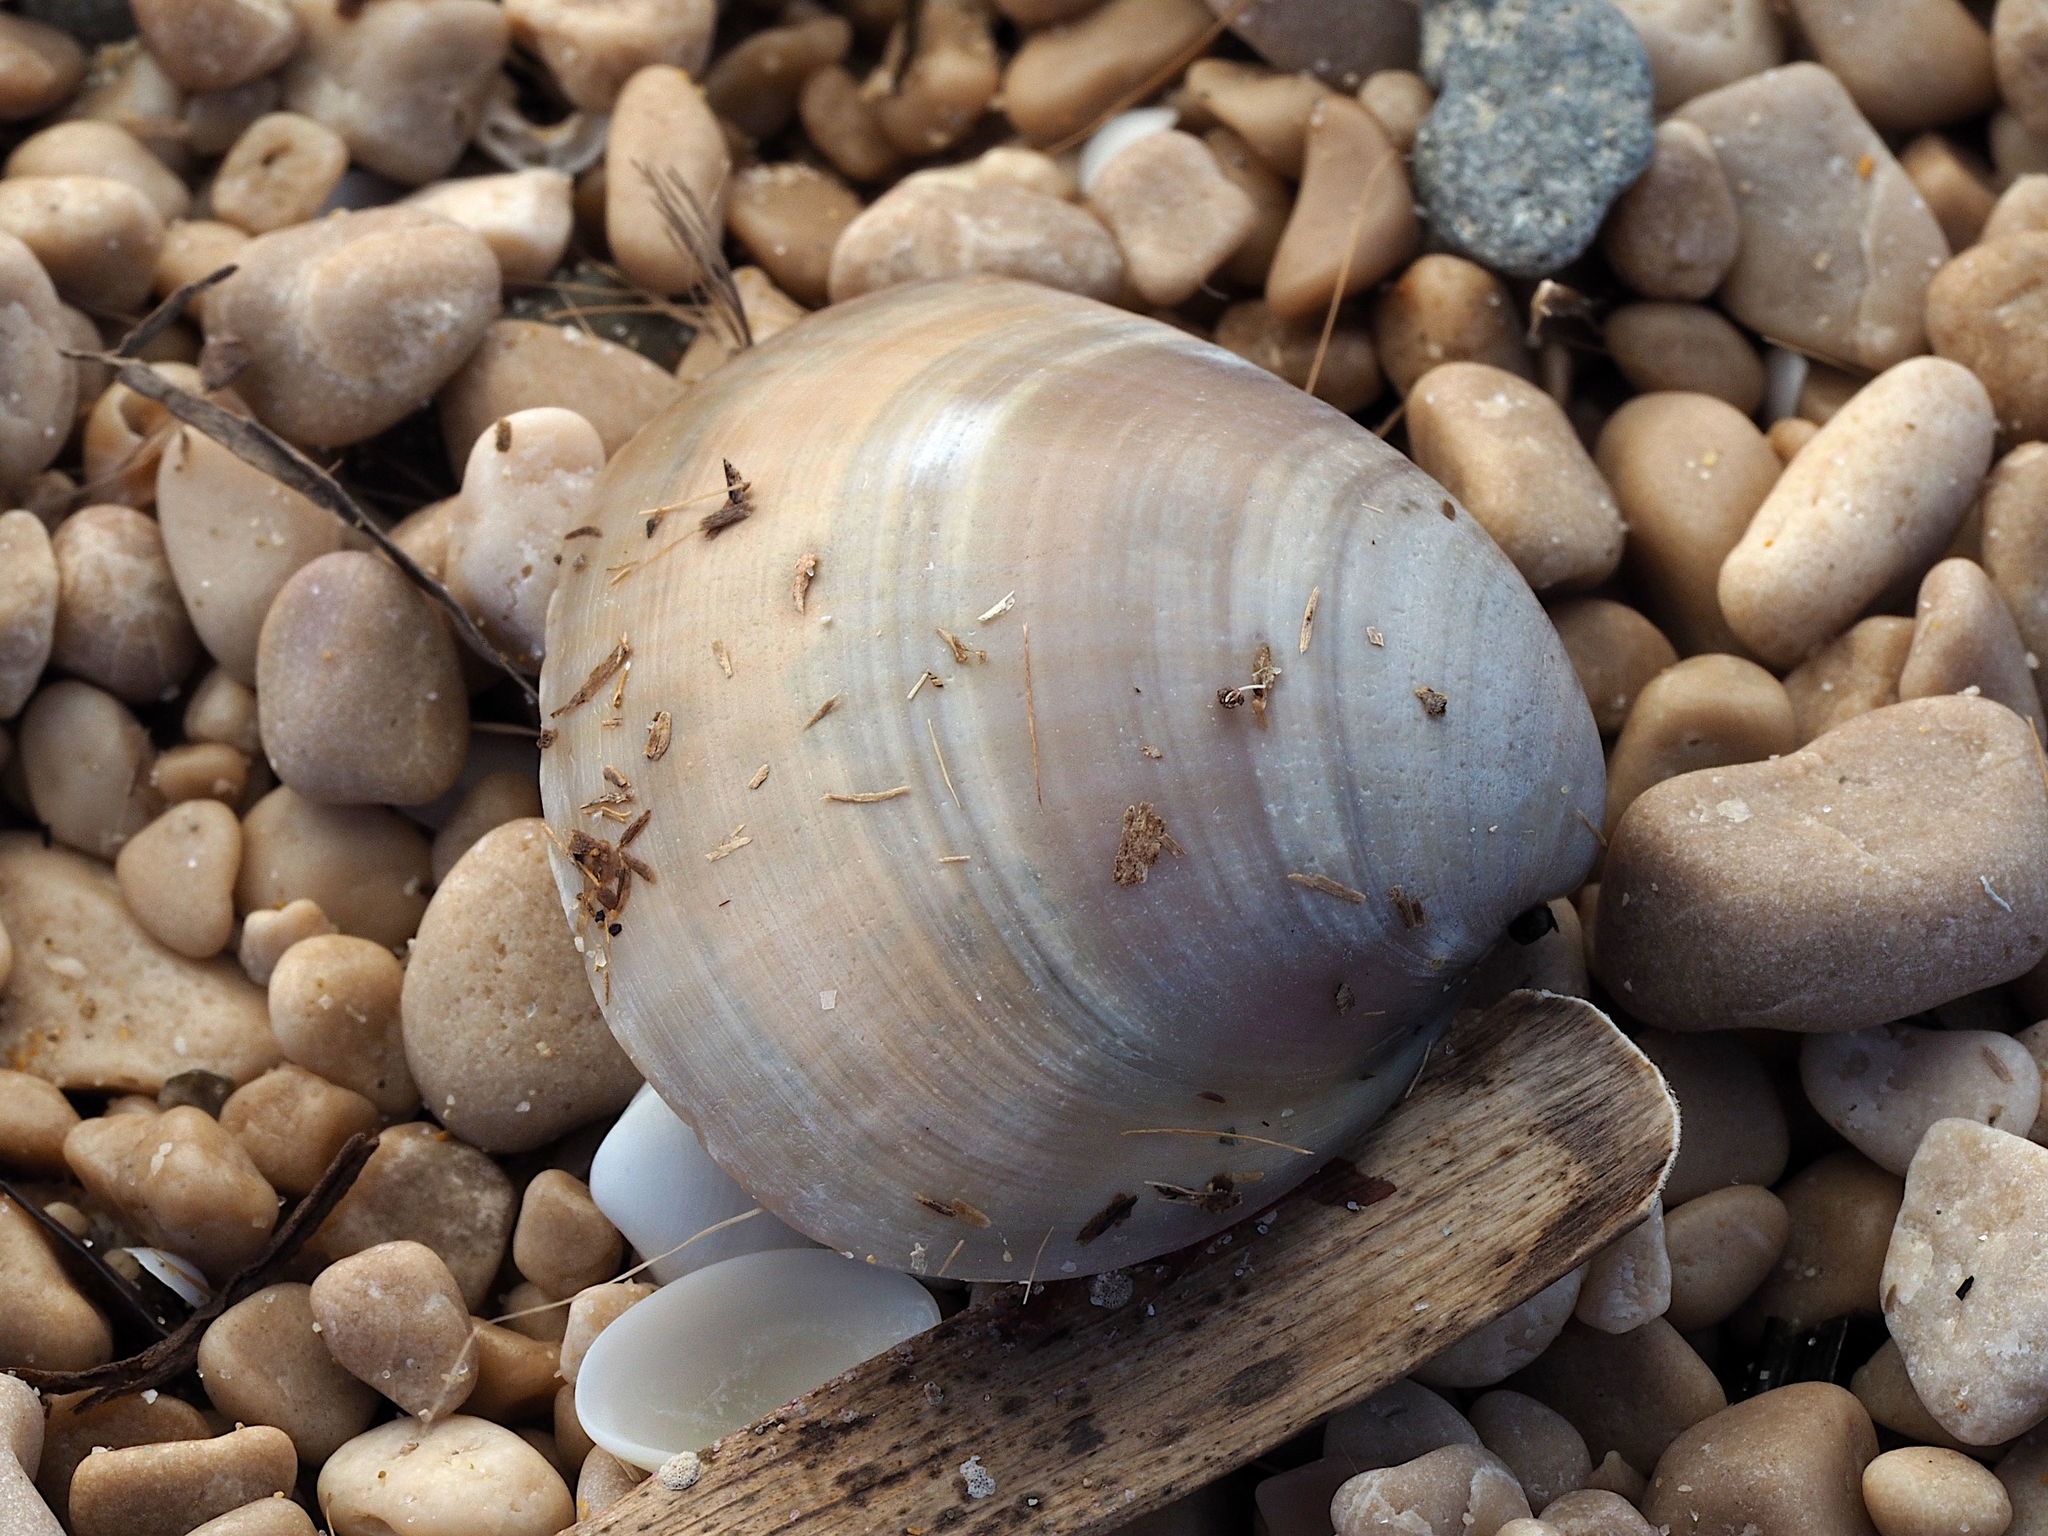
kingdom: Animalia
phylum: Mollusca
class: Bivalvia
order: Venerida
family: Mactridae
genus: Mactra
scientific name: Mactra stultorum
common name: Rayed trough shell
